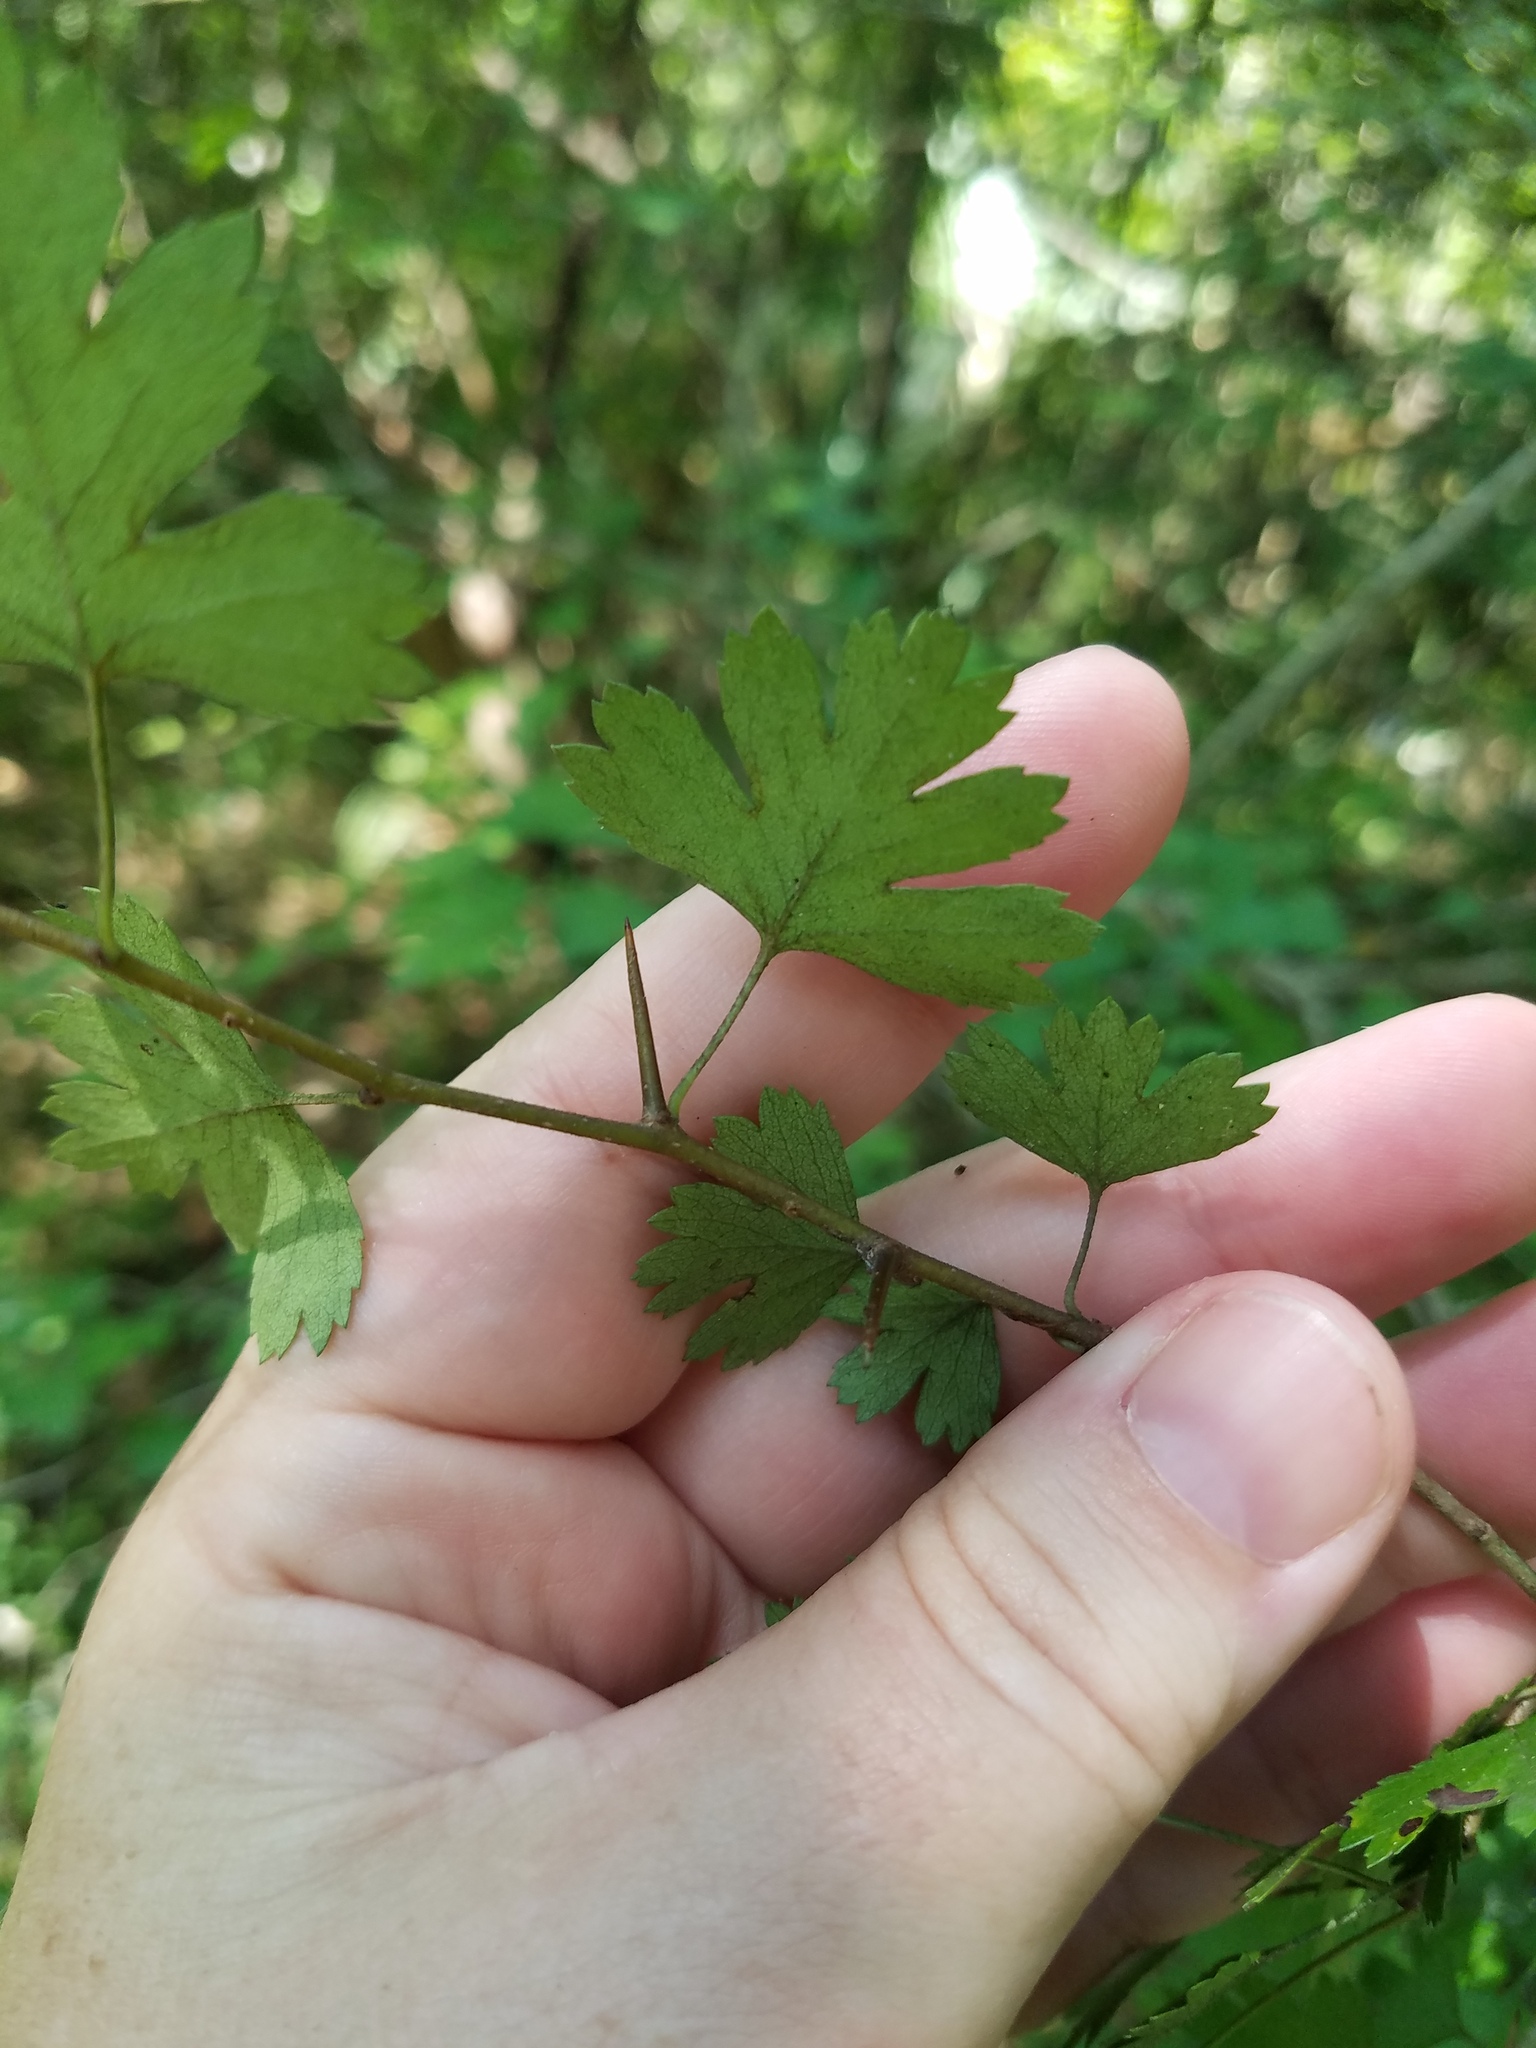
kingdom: Plantae
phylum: Tracheophyta
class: Magnoliopsida
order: Rosales
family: Rosaceae
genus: Crataegus
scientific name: Crataegus marshallii
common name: Parsley-hawthorn
